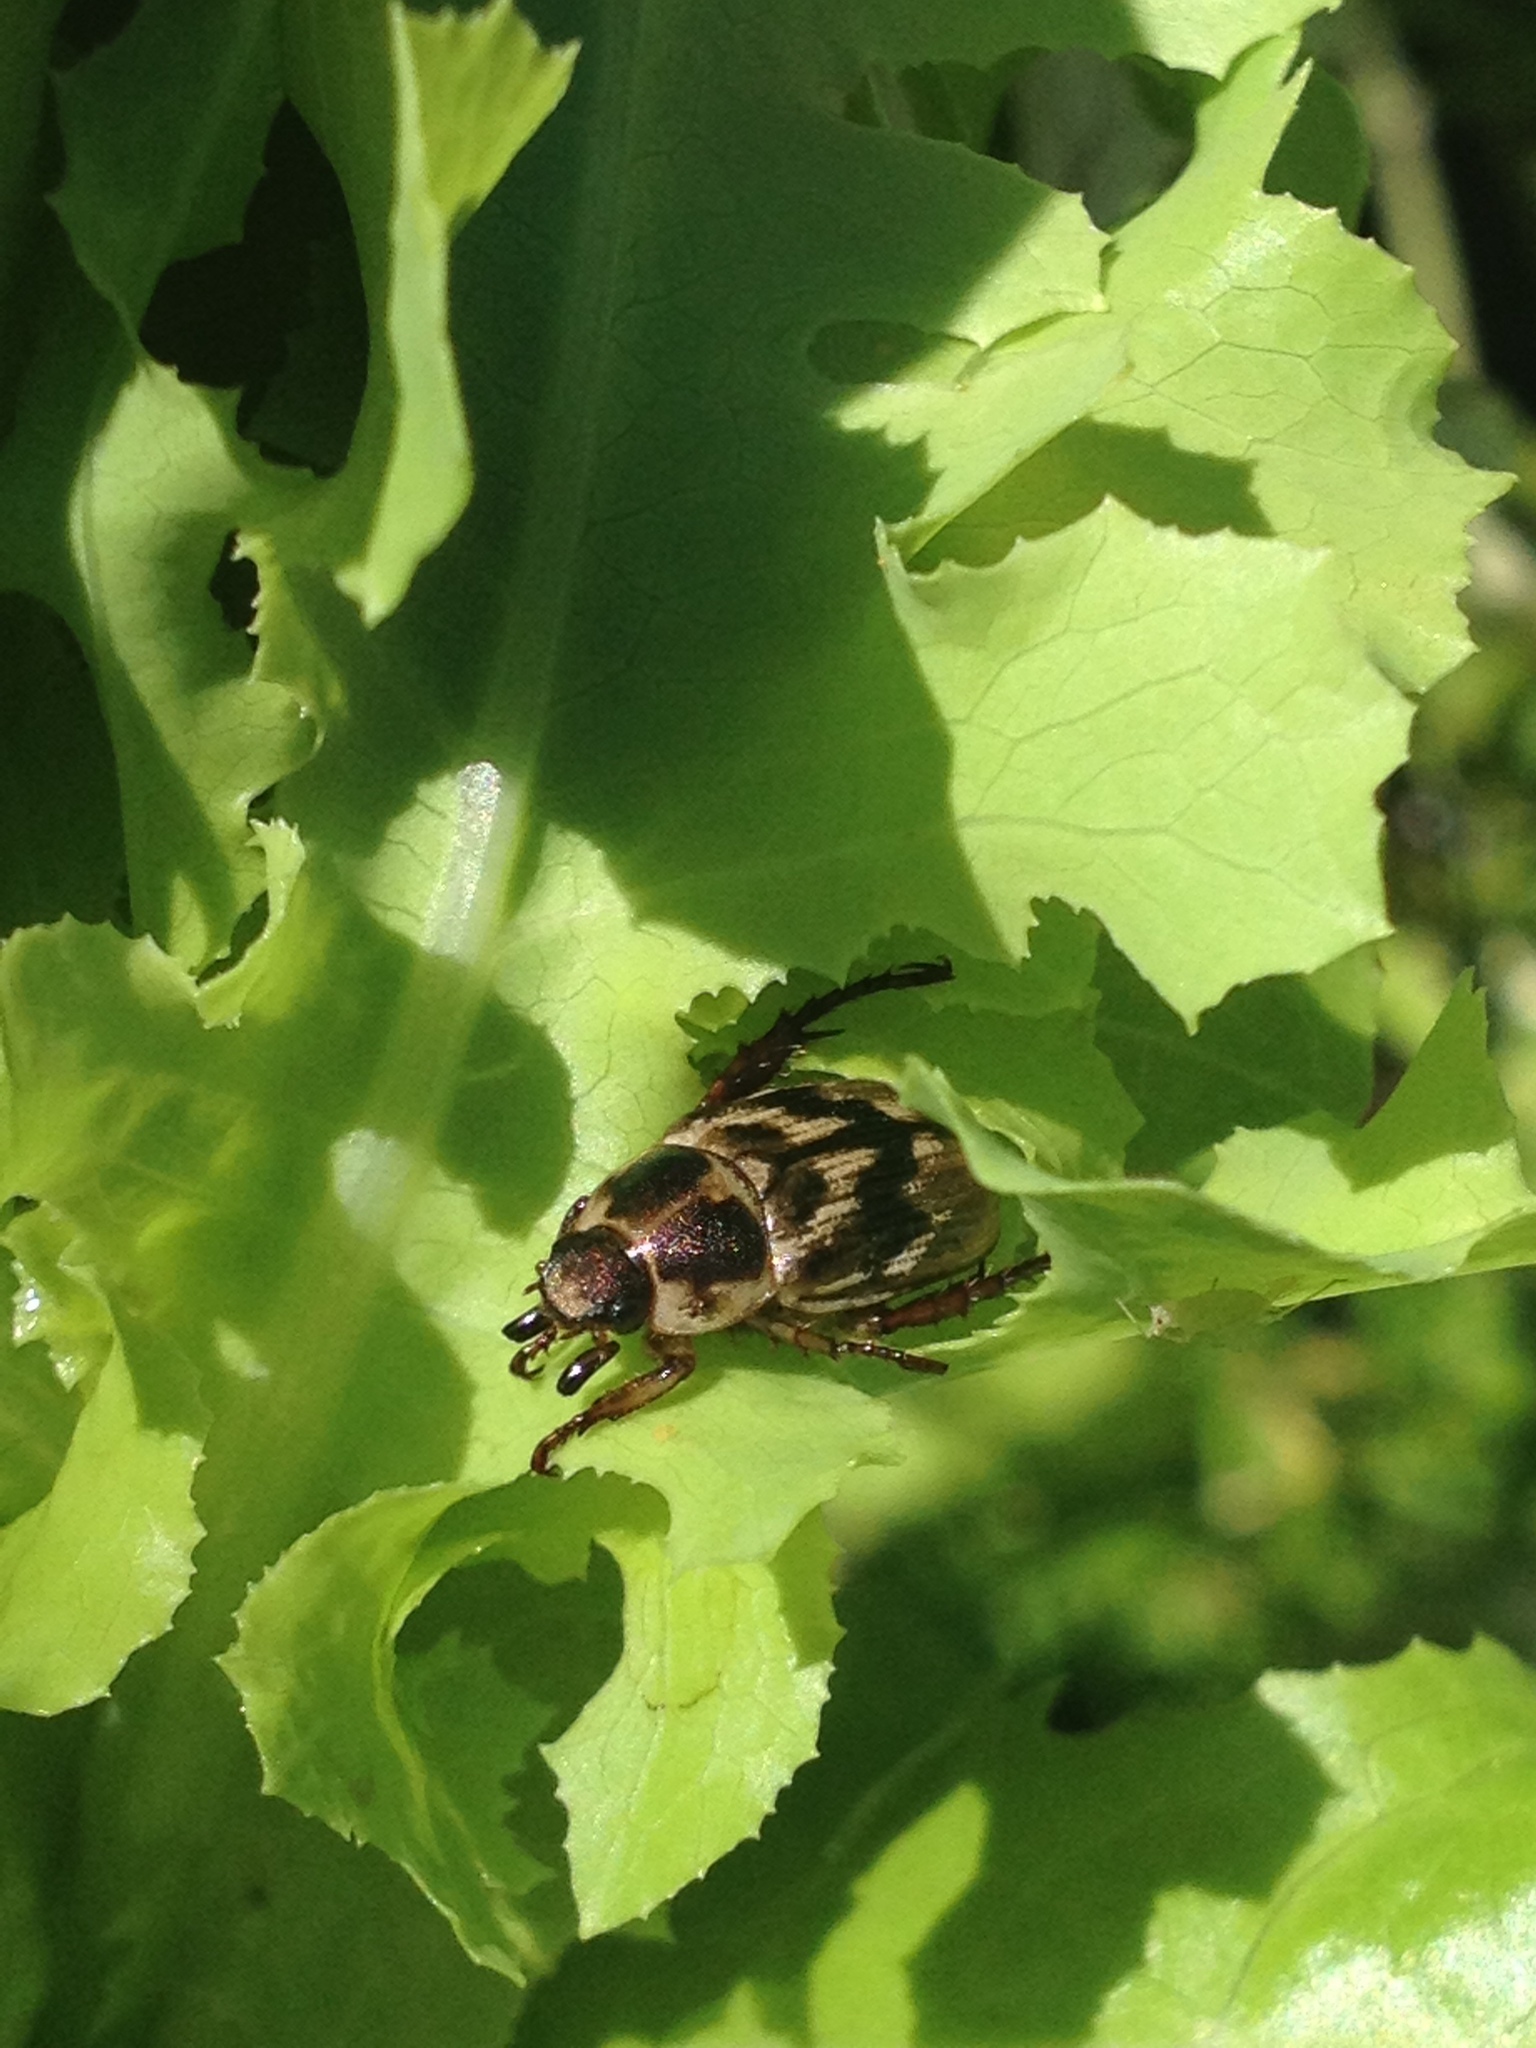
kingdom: Animalia
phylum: Arthropoda
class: Insecta
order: Coleoptera
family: Scarabaeidae
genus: Exomala
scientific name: Exomala orientalis
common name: Oriental beetle
